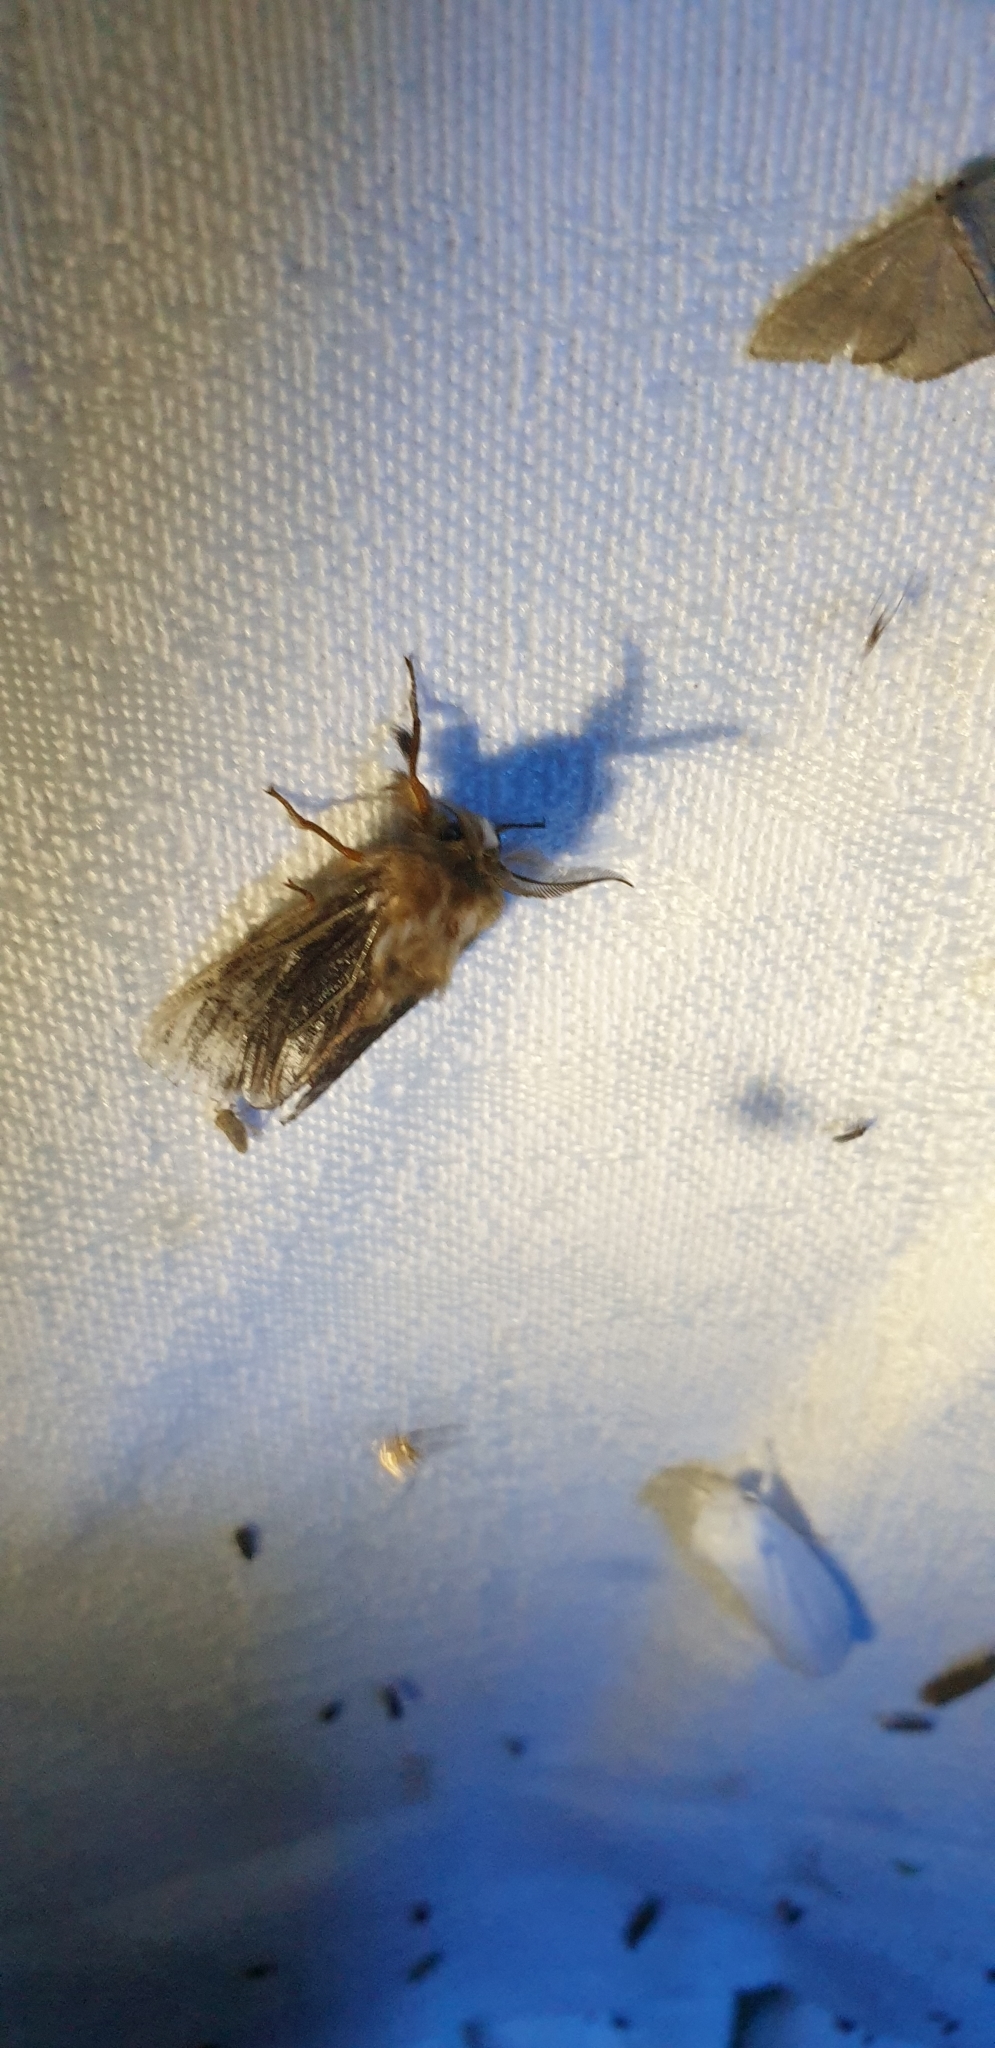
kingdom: Animalia
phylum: Arthropoda
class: Insecta
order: Lepidoptera
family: Psychidae
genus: Clania
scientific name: Clania ignobilis
